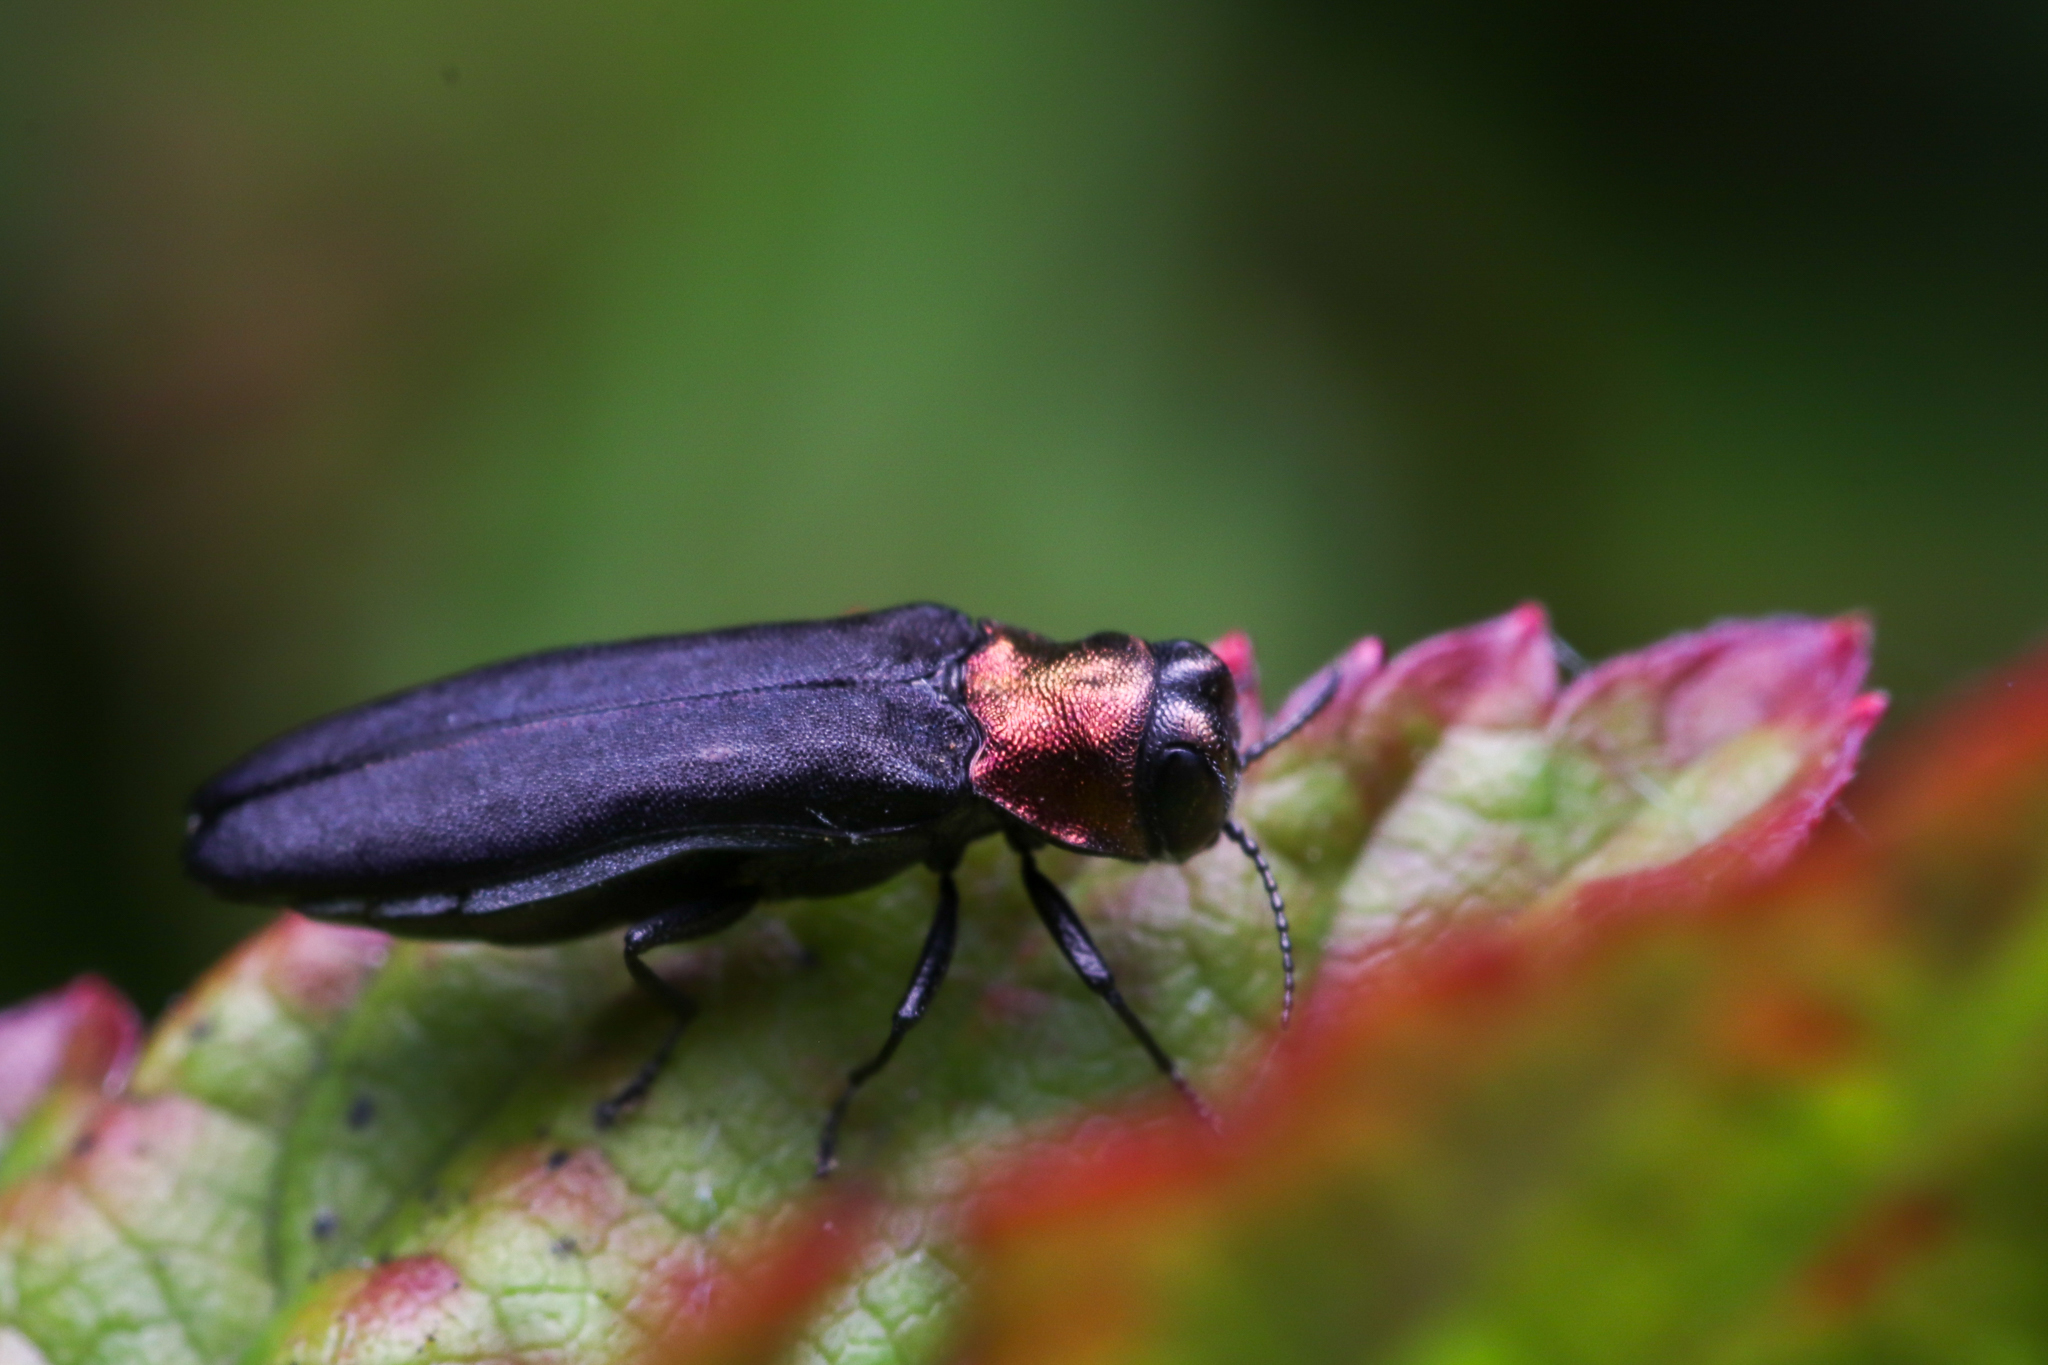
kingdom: Animalia
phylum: Arthropoda
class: Insecta
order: Coleoptera
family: Buprestidae
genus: Agrilus
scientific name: Agrilus ruficollis
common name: Red-necked cane borer beetle
